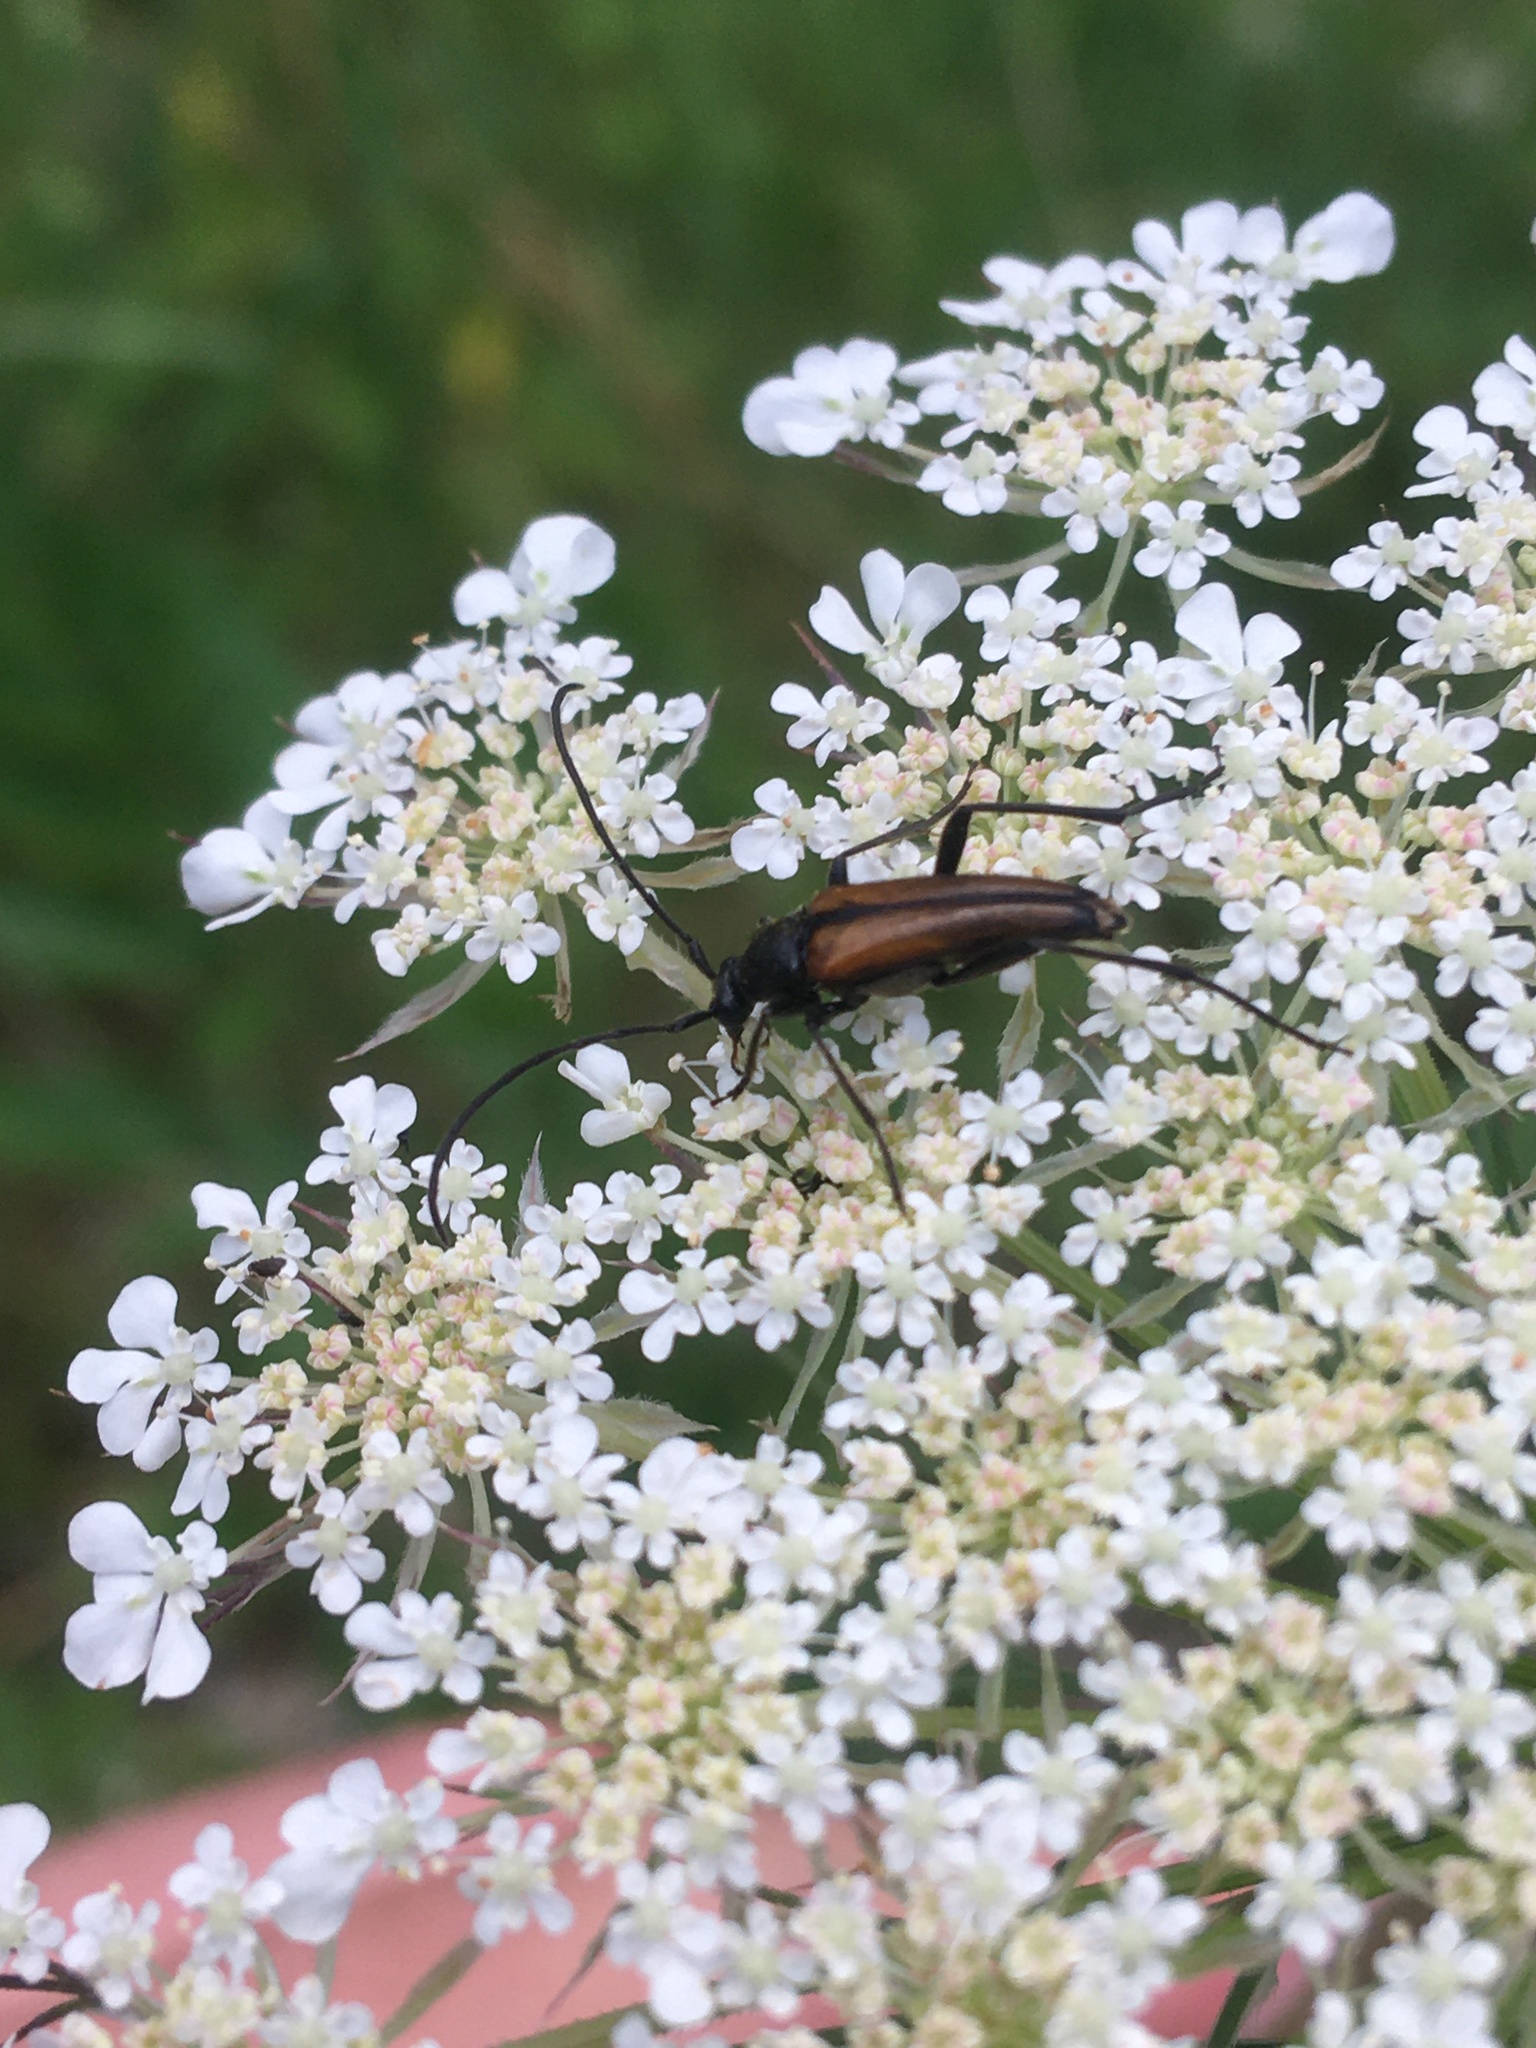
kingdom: Animalia
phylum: Arthropoda
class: Insecta
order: Coleoptera
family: Cerambycidae
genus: Stenurella
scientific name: Stenurella melanura
